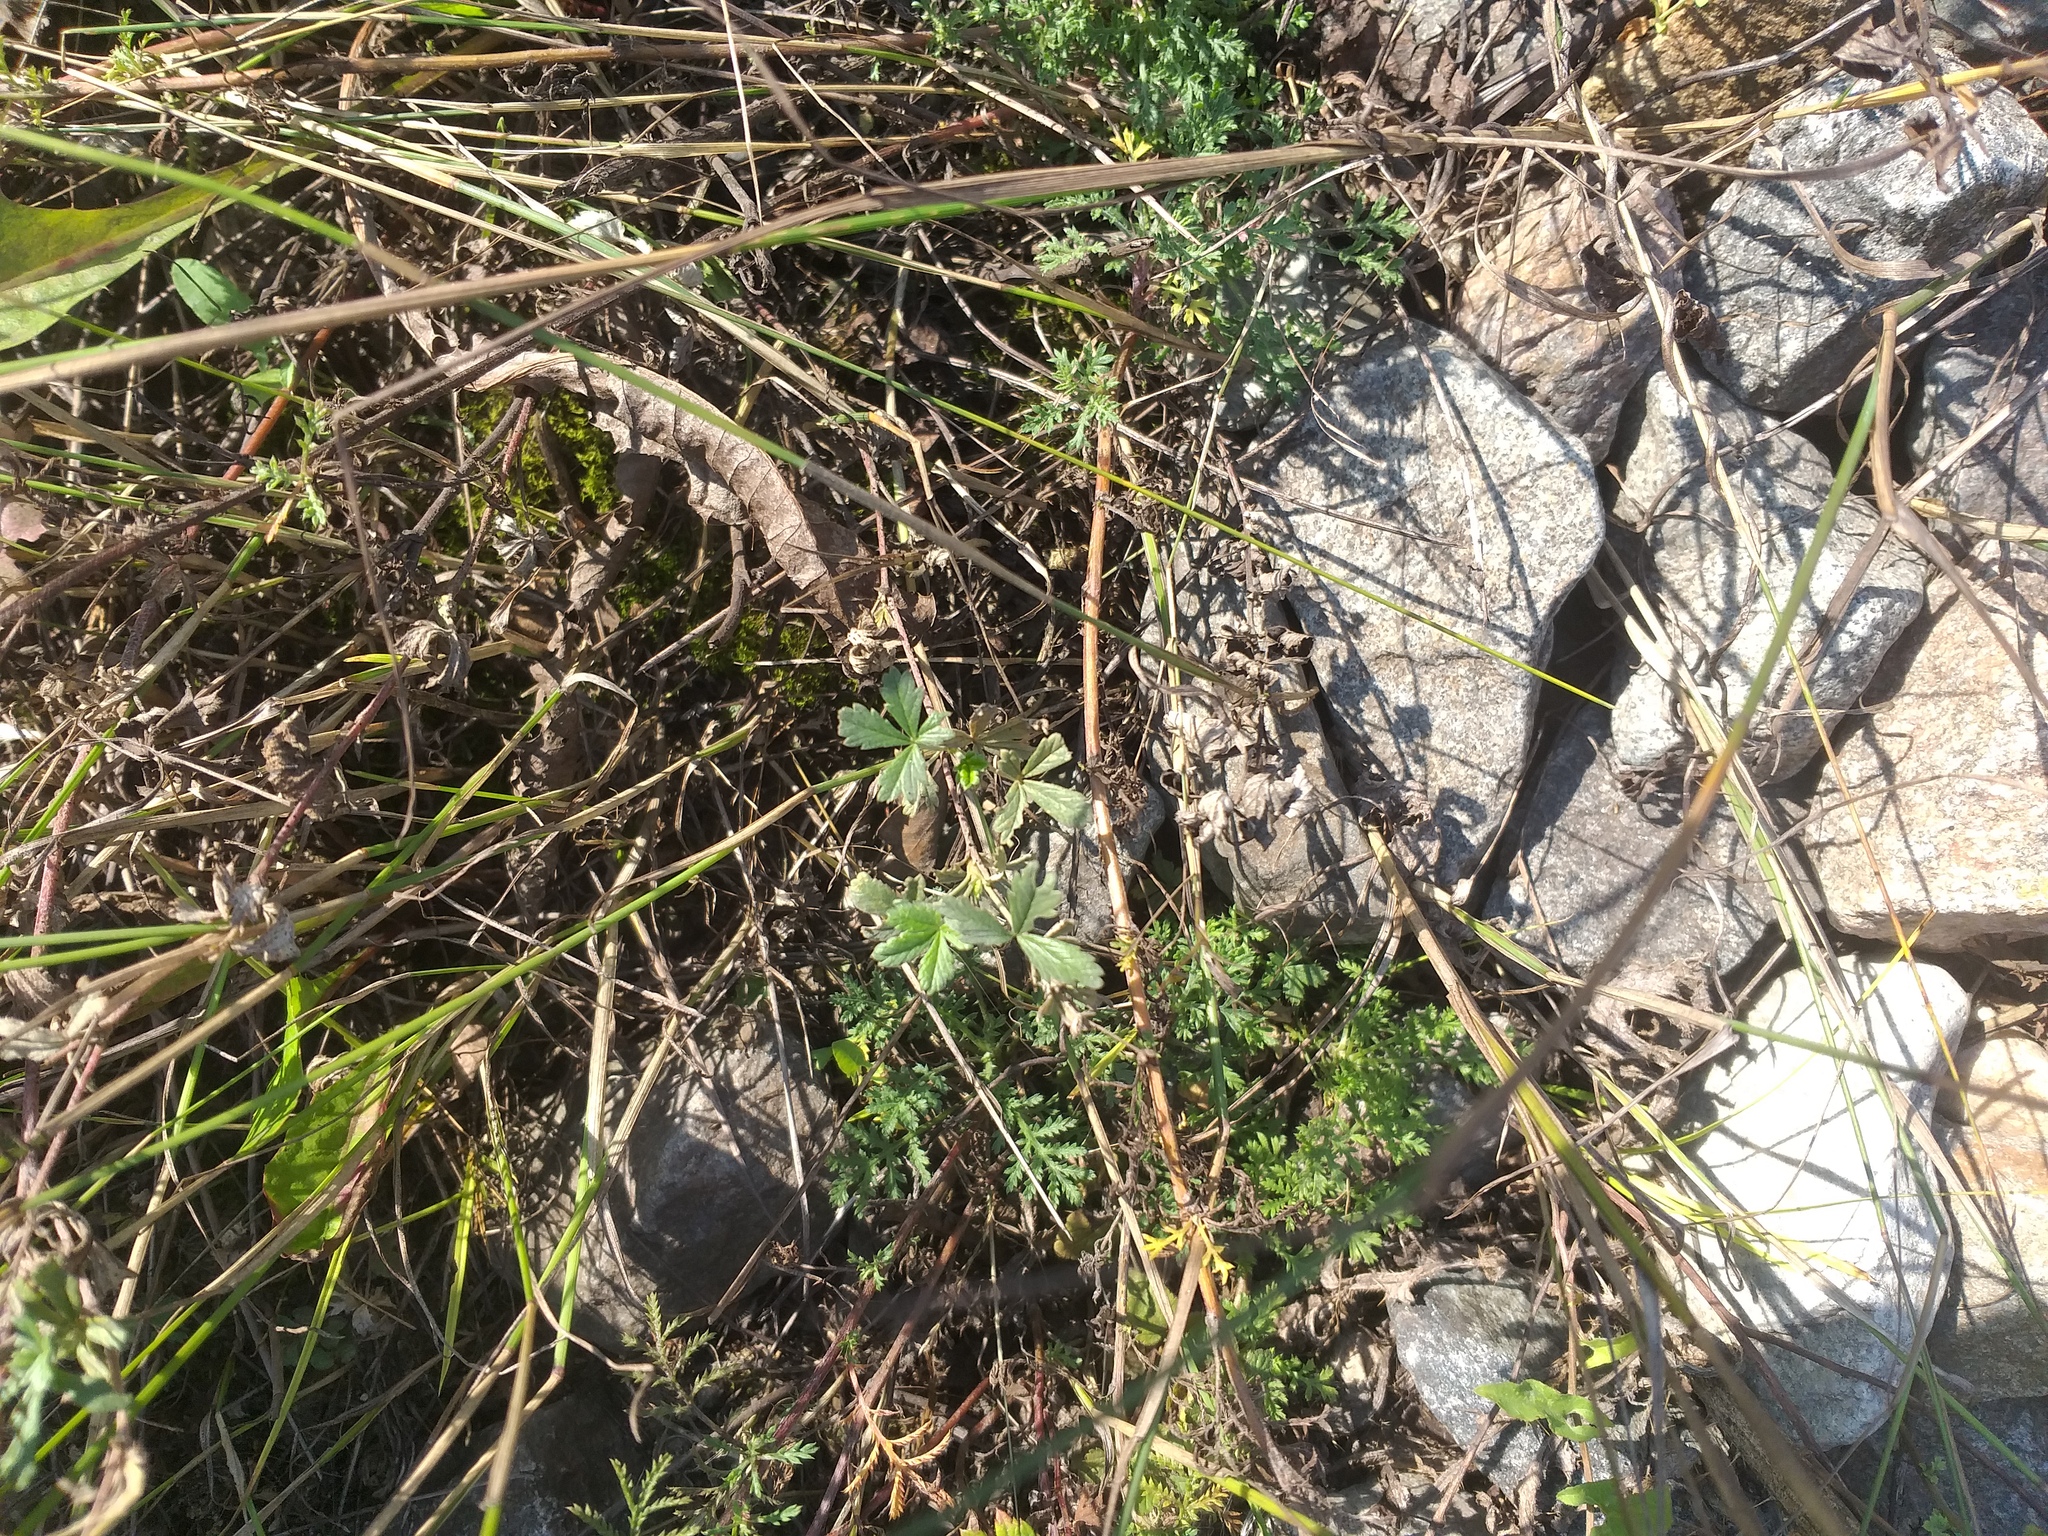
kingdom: Plantae
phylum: Tracheophyta
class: Magnoliopsida
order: Rosales
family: Rosaceae
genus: Potentilla
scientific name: Potentilla argentea
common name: Hoary cinquefoil
